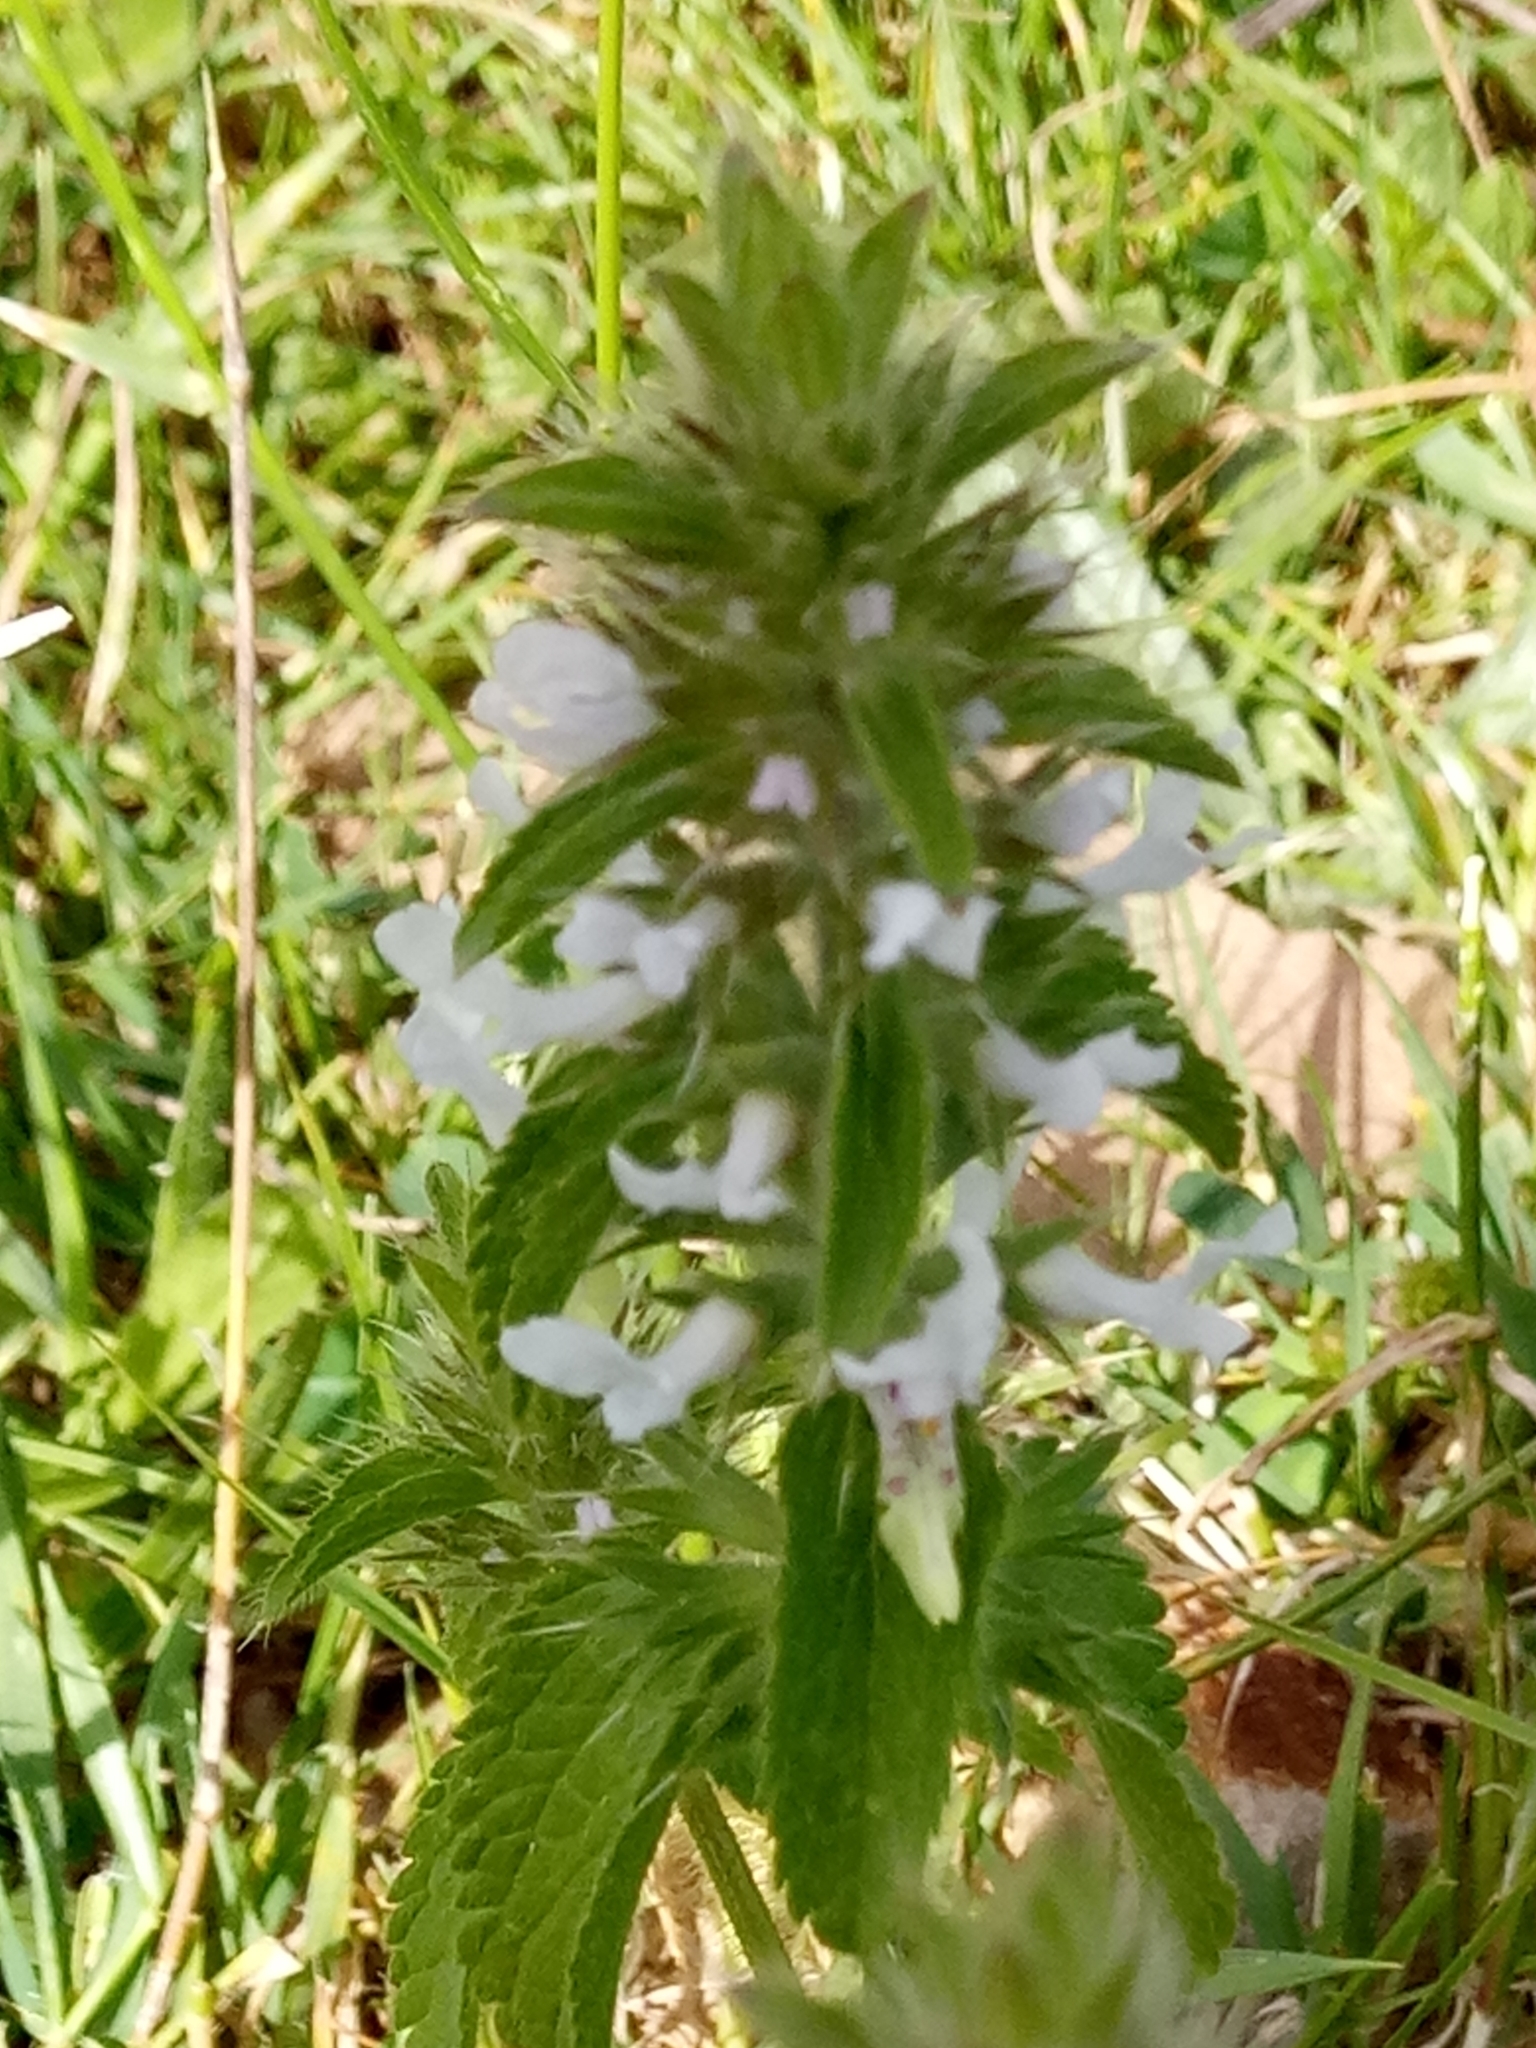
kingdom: Plantae
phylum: Tracheophyta
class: Magnoliopsida
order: Lamiales
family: Lamiaceae
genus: Stachys
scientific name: Stachys ocymastrum
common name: Italian hedgenettle
